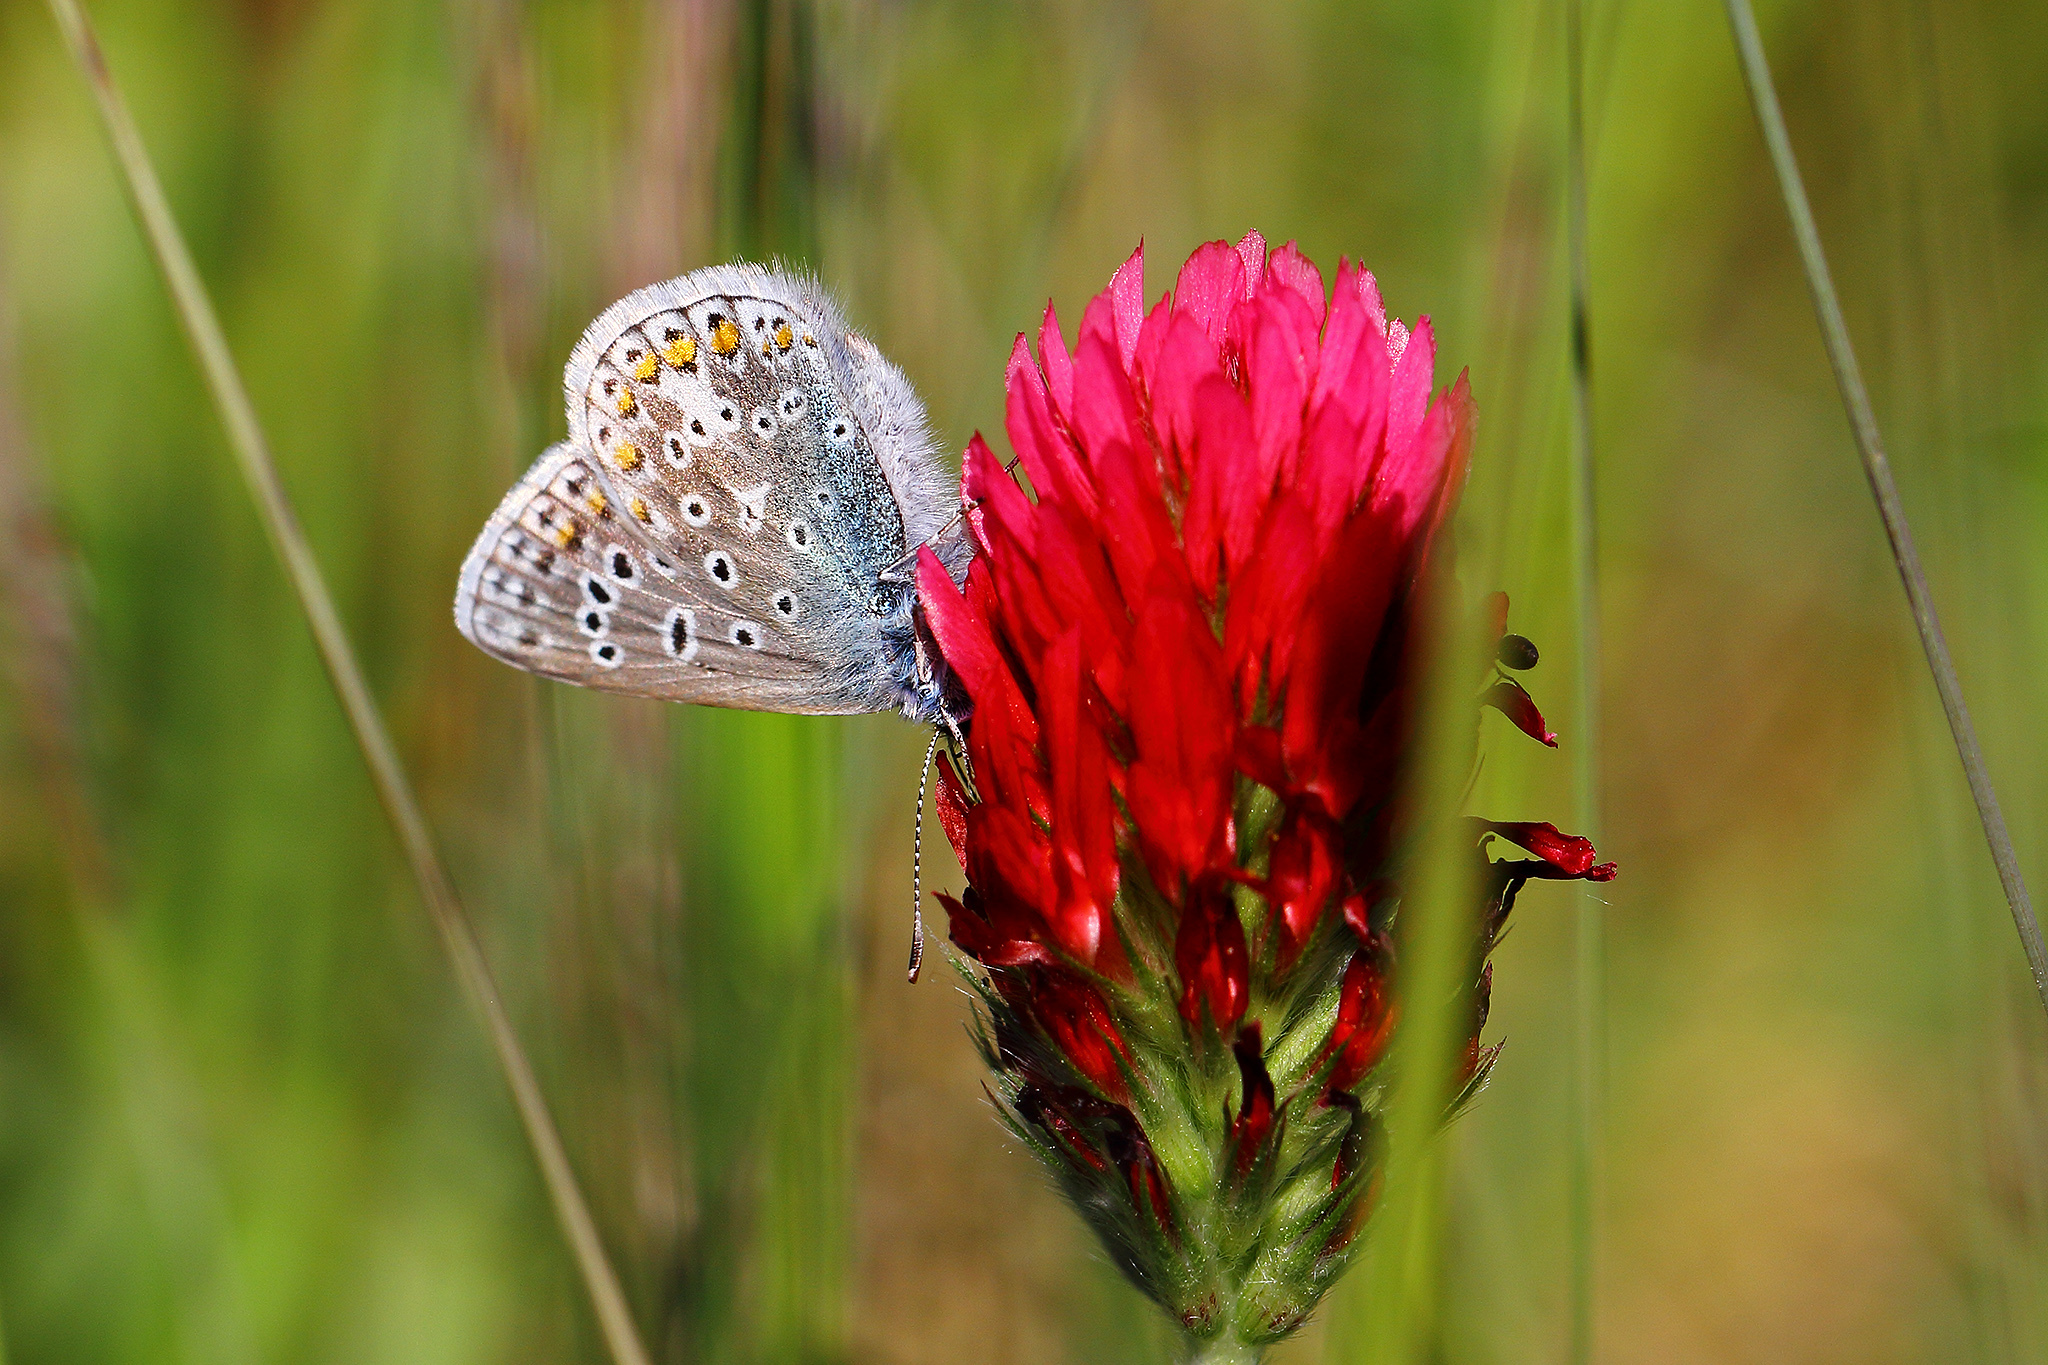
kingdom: Animalia
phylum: Arthropoda
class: Insecta
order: Lepidoptera
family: Lycaenidae
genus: Polyommatus
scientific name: Polyommatus icarus
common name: Common blue
